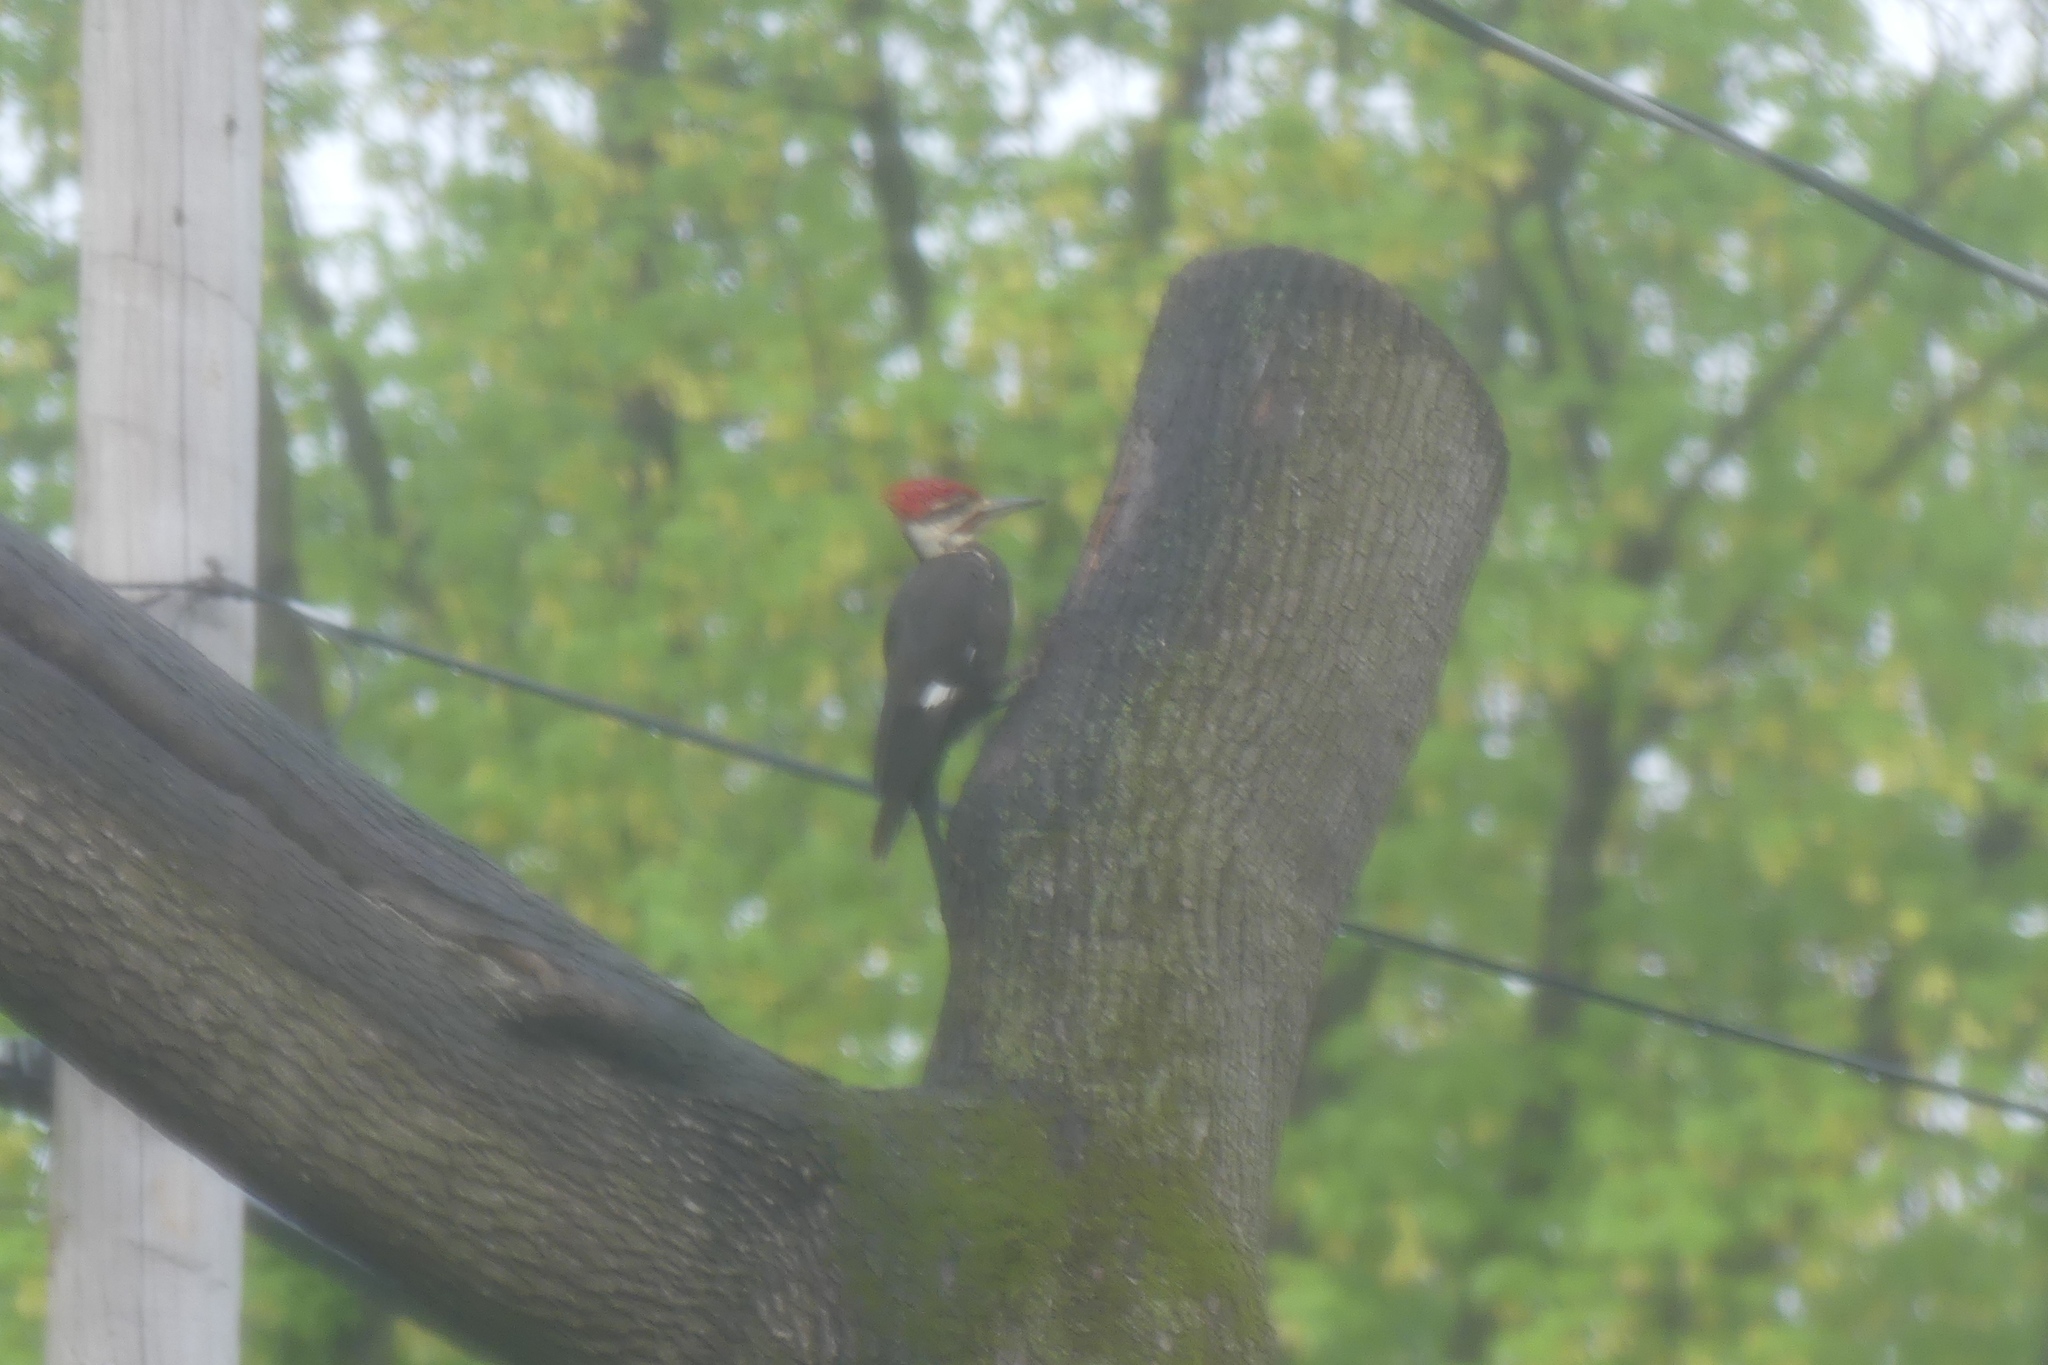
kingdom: Animalia
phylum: Chordata
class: Aves
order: Piciformes
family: Picidae
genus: Dryocopus
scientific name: Dryocopus pileatus
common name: Pileated woodpecker
